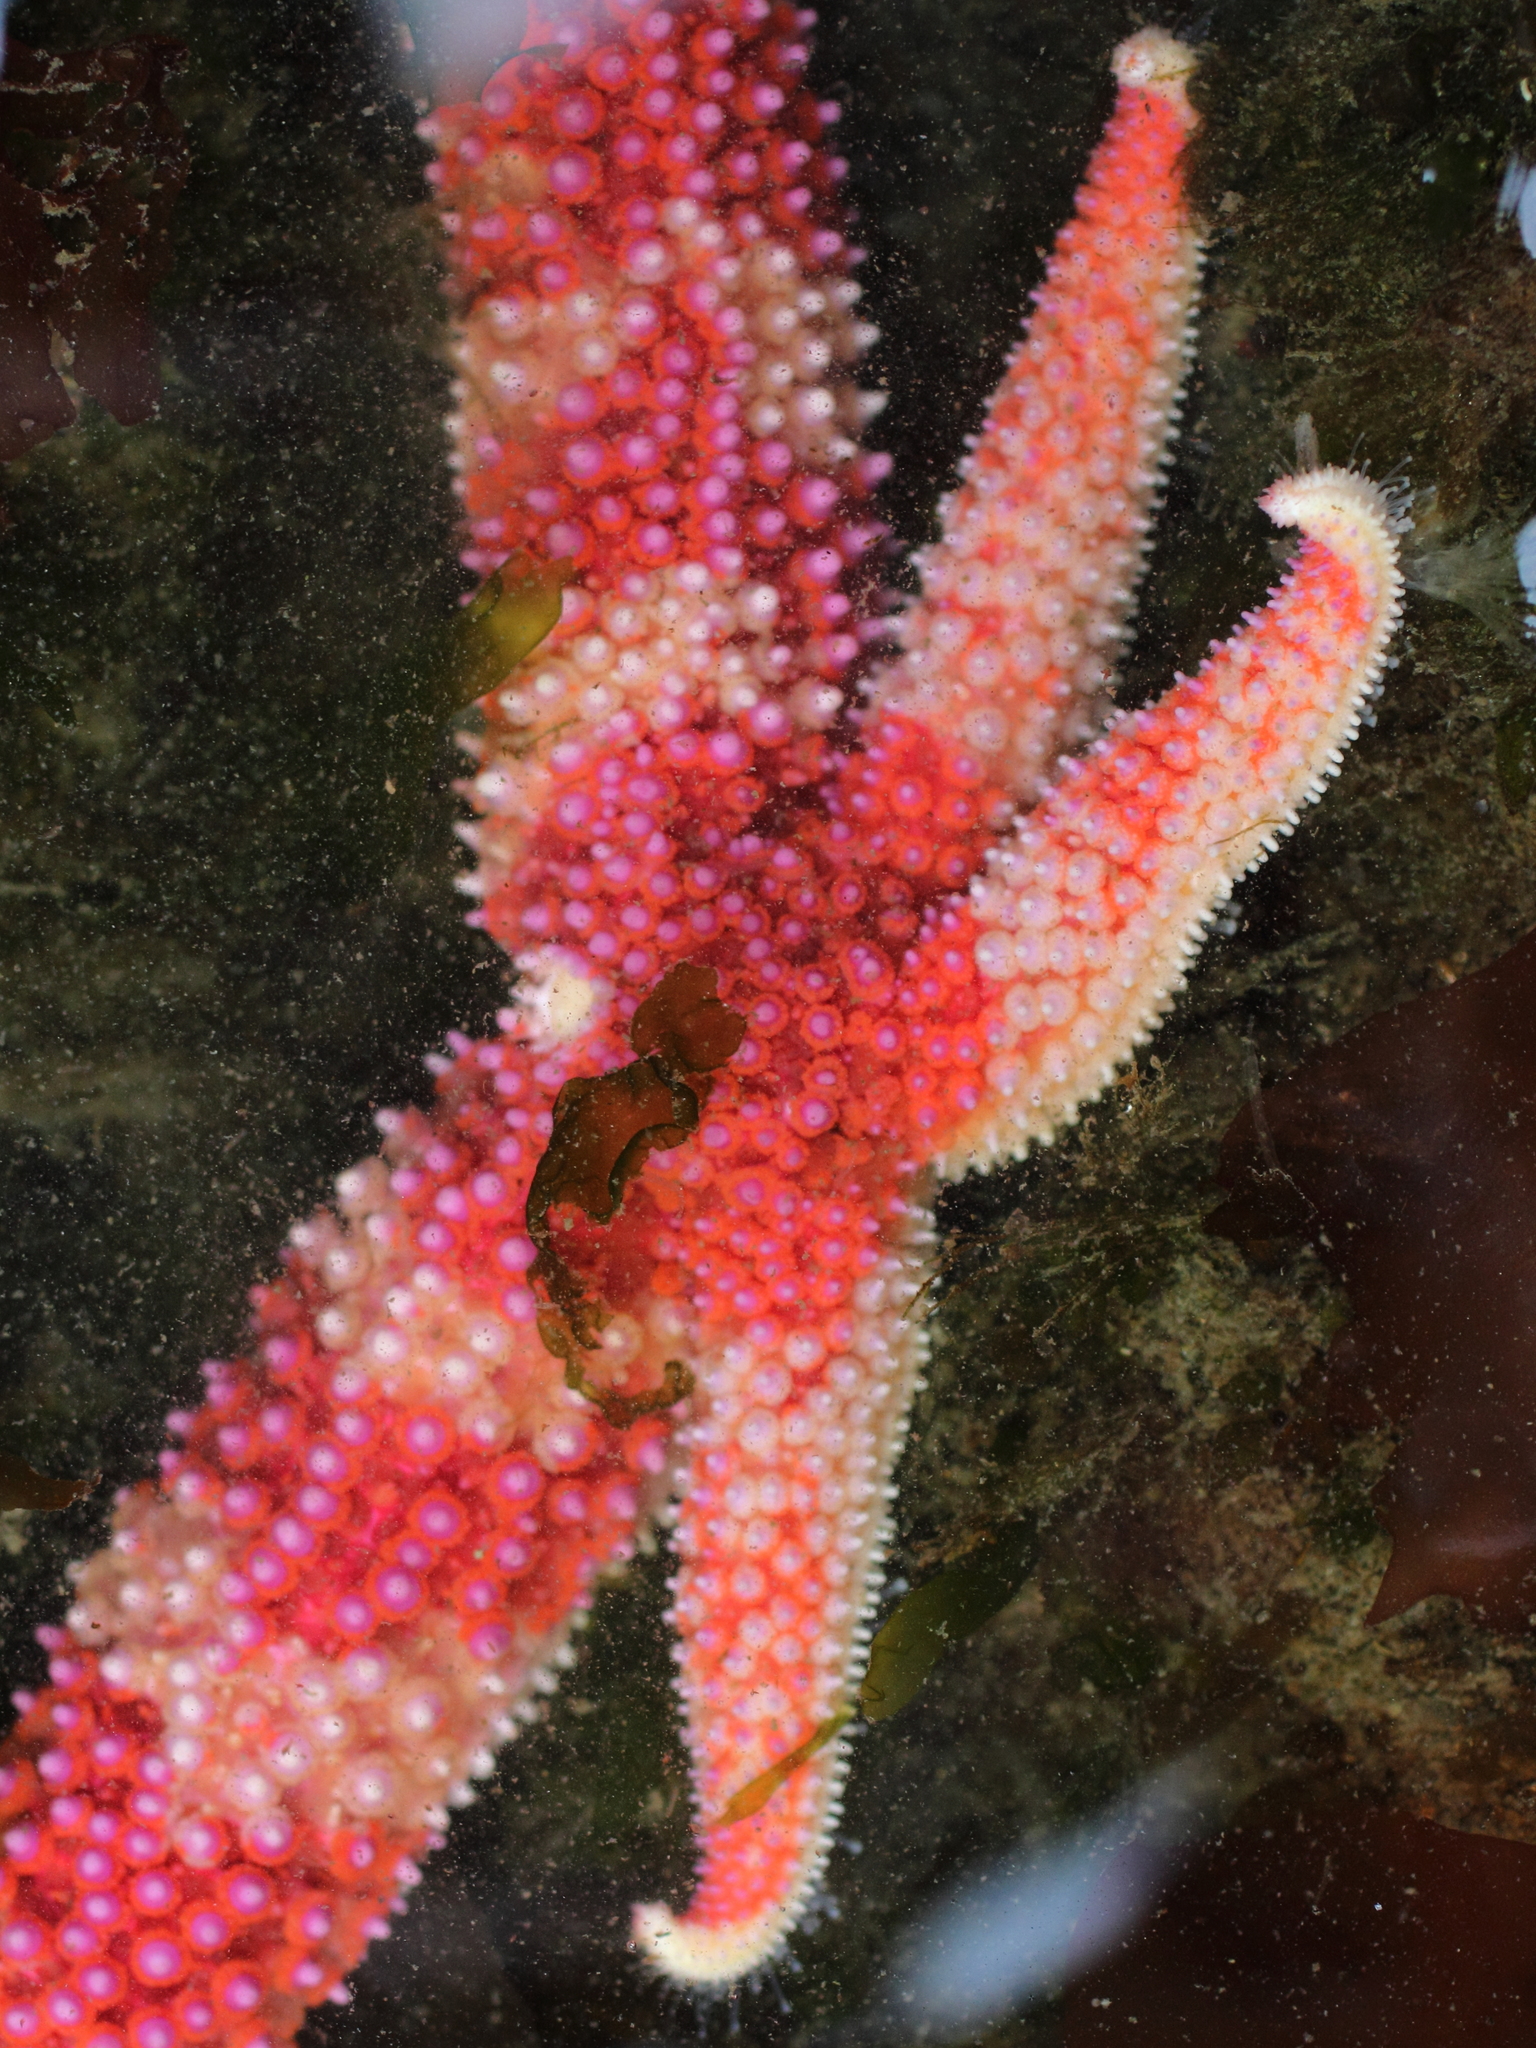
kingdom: Animalia
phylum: Echinodermata
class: Asteroidea
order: Forcipulatida
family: Asteriidae
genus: Orthasterias
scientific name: Orthasterias koehleri
